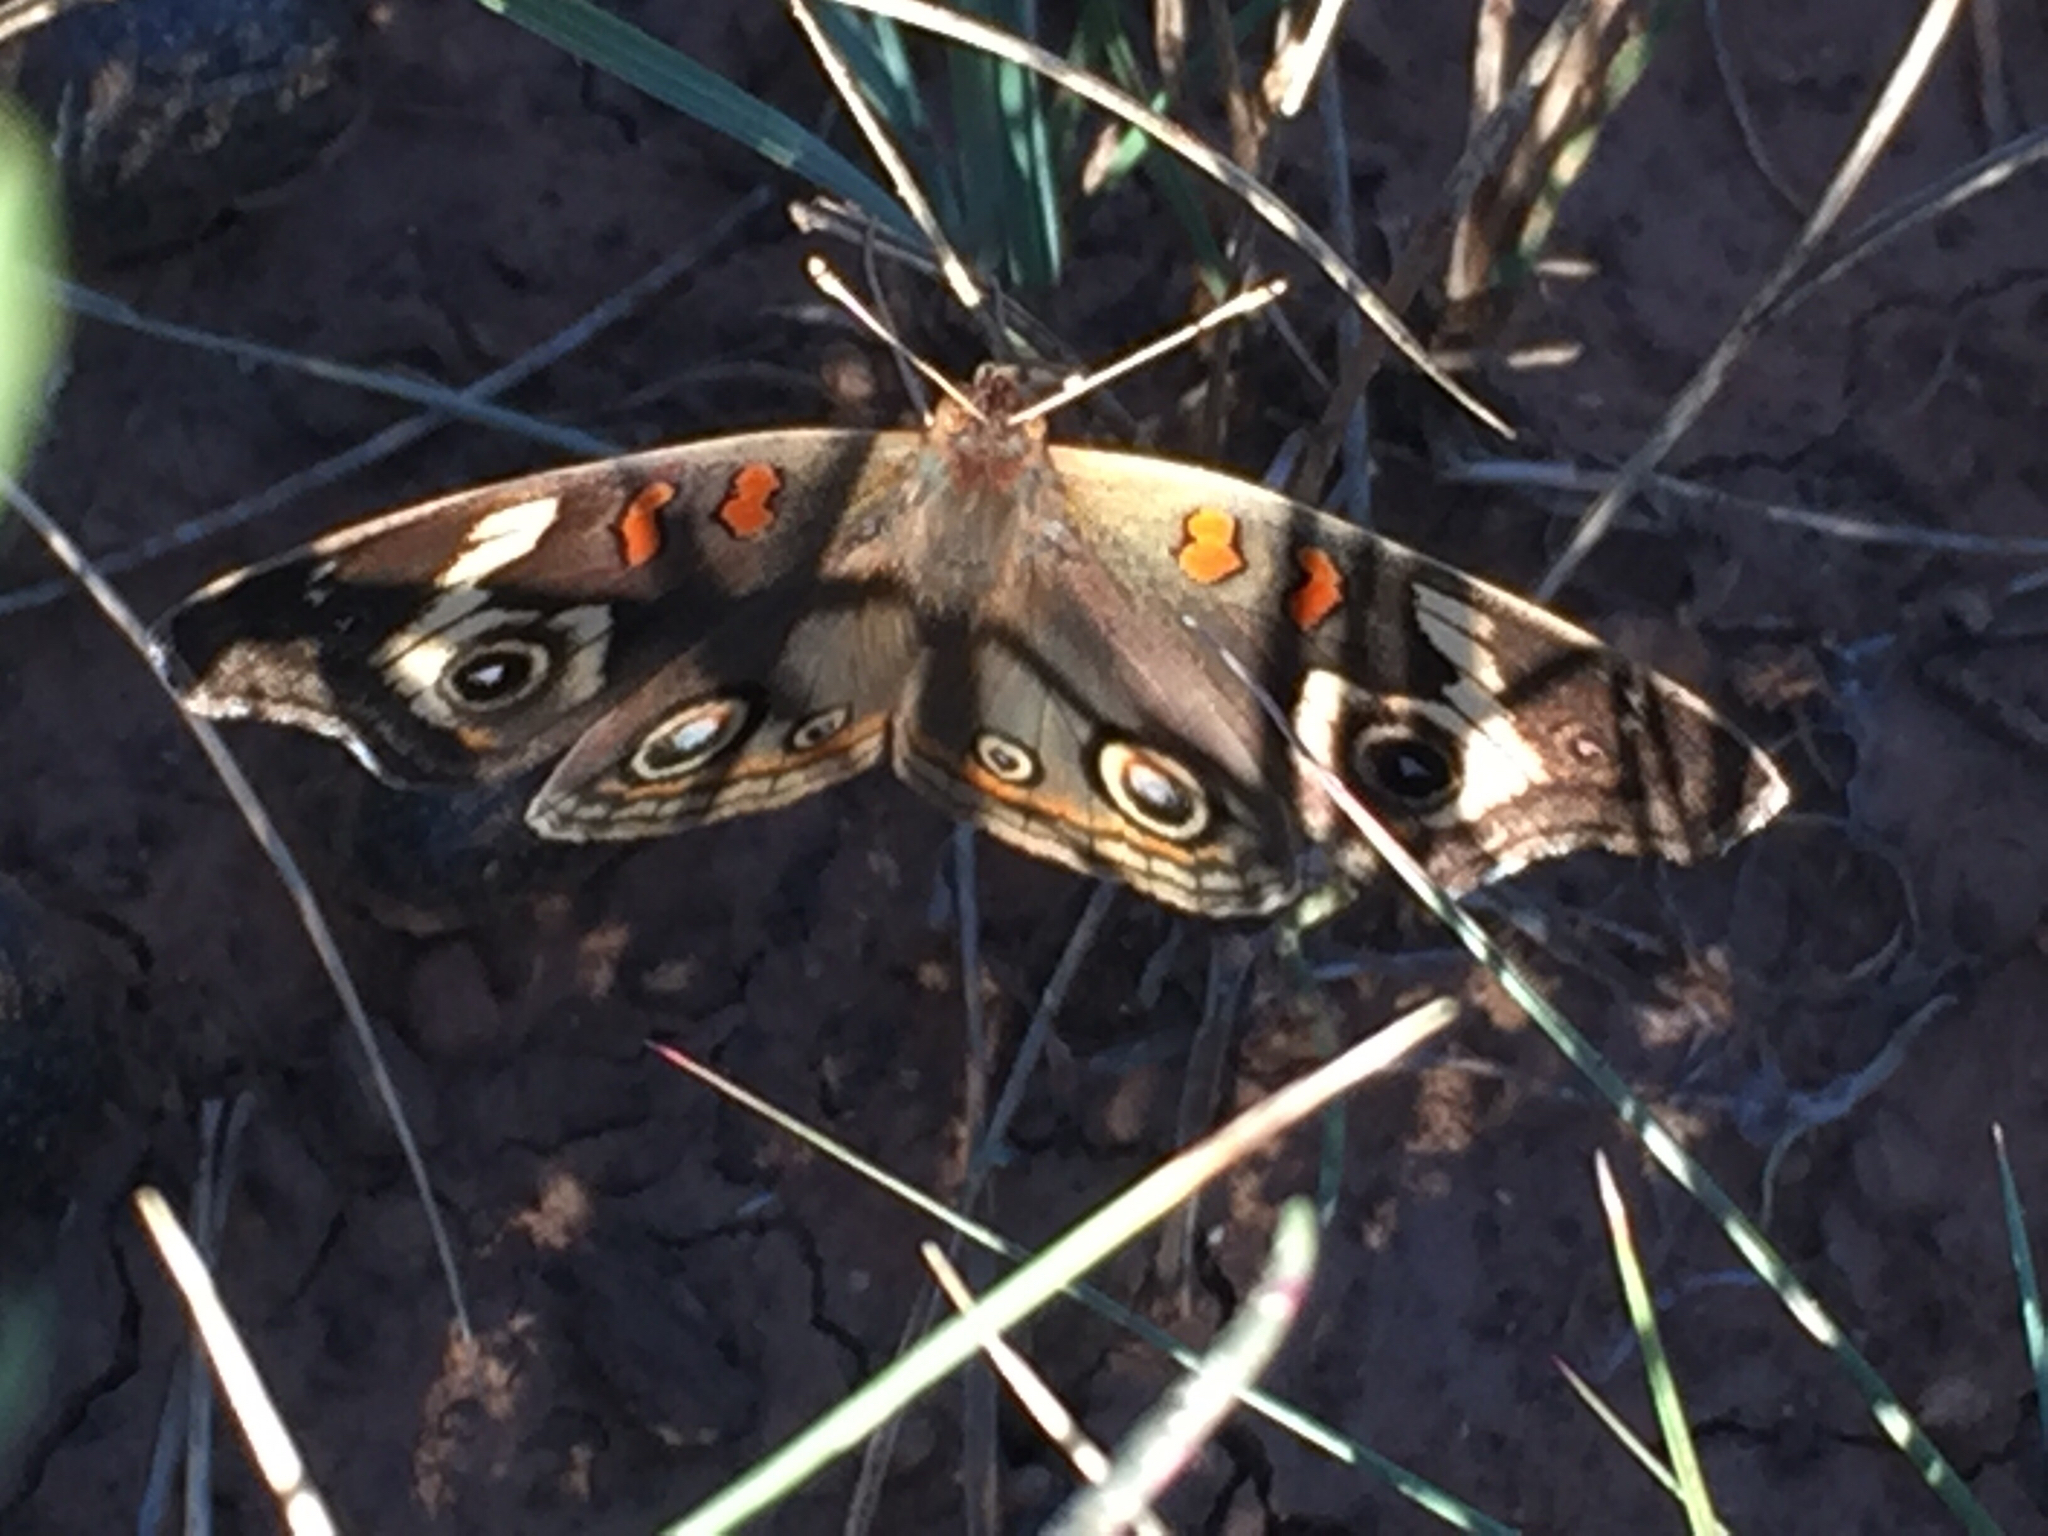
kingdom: Animalia
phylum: Arthropoda
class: Insecta
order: Lepidoptera
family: Nymphalidae
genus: Junonia
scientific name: Junonia grisea
